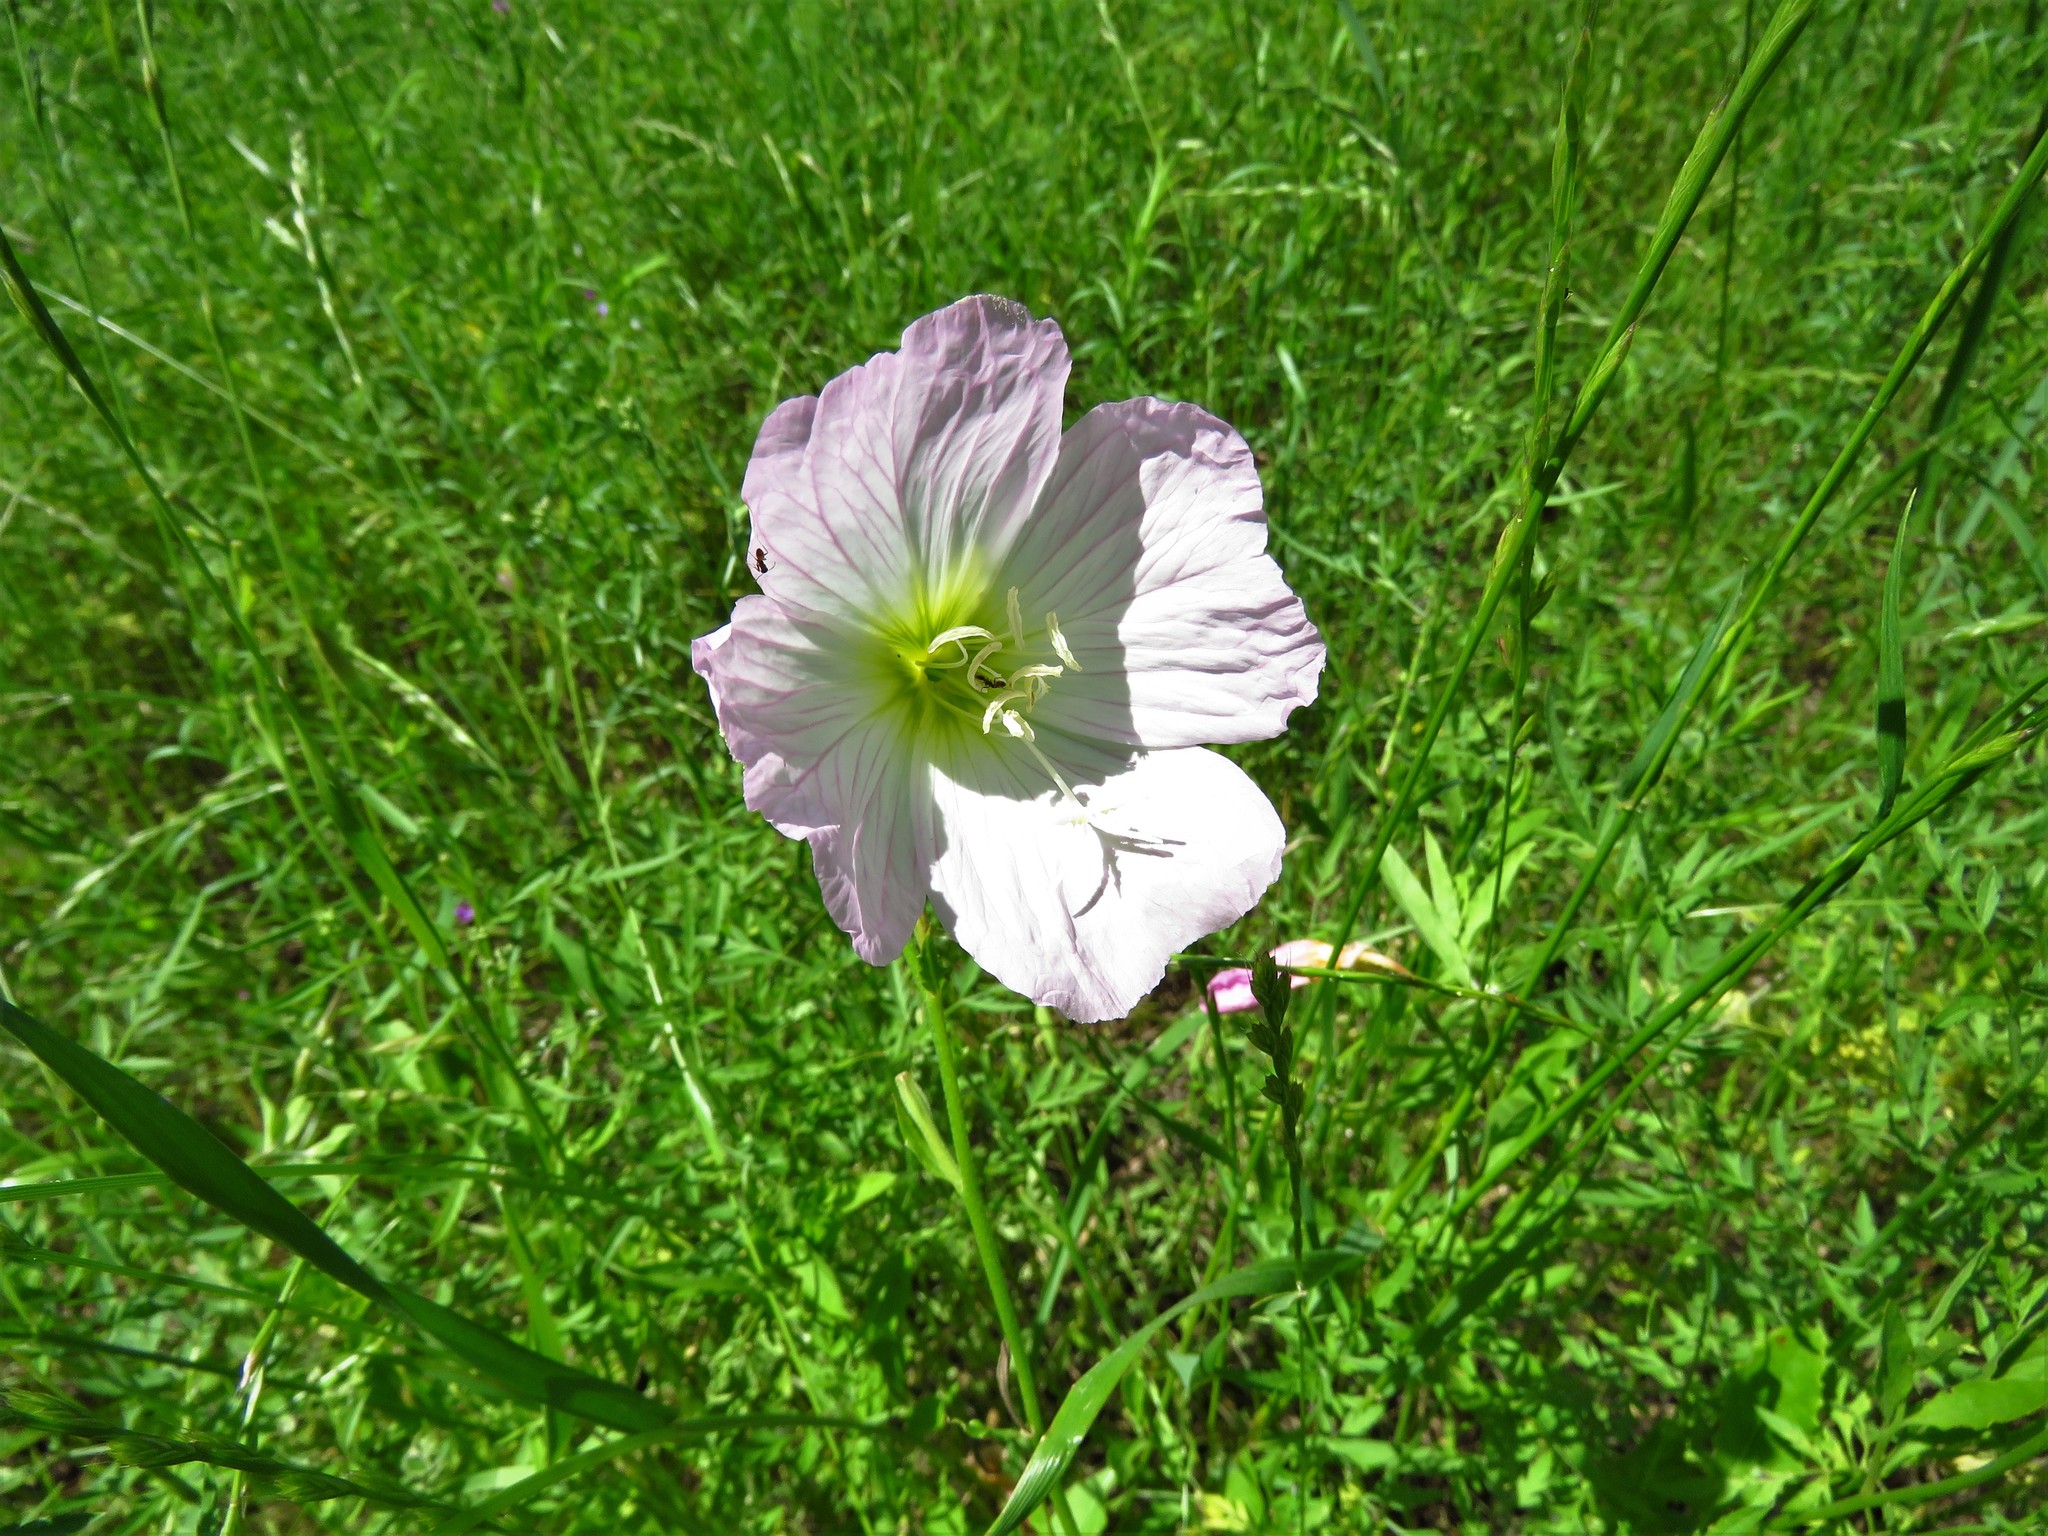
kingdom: Plantae
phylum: Tracheophyta
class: Magnoliopsida
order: Myrtales
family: Onagraceae
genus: Oenothera
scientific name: Oenothera speciosa
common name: White evening-primrose
